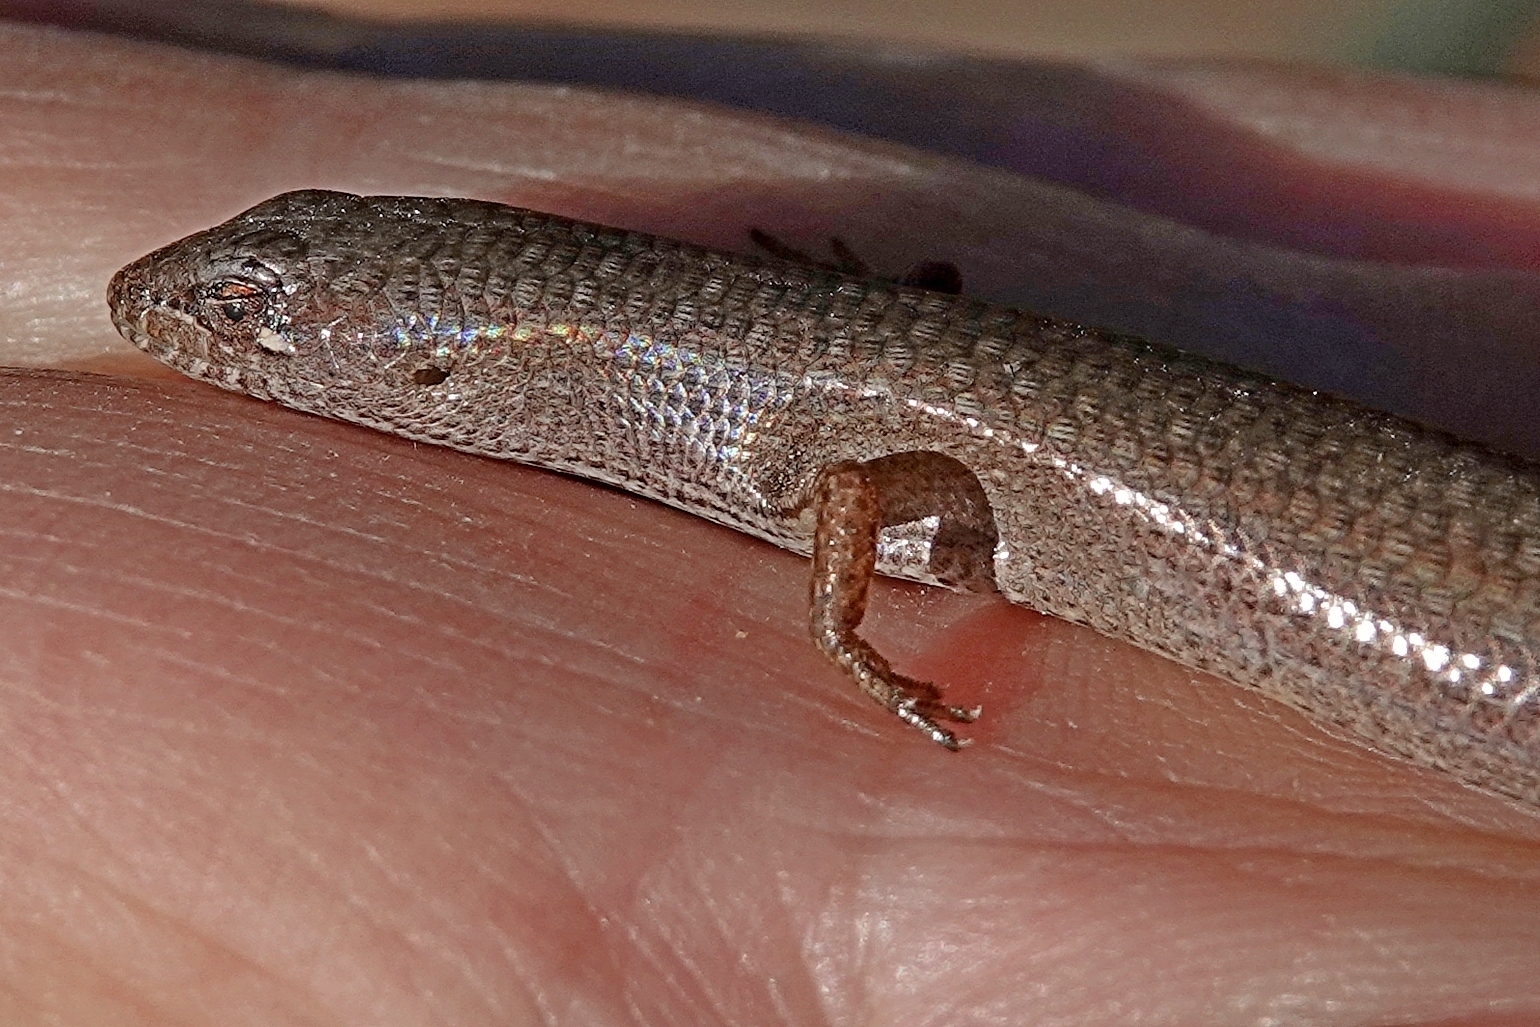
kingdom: Animalia
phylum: Chordata
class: Squamata
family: Scincidae
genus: Saproscincus
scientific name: Saproscincus mustelinus
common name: Southern weasel skink
